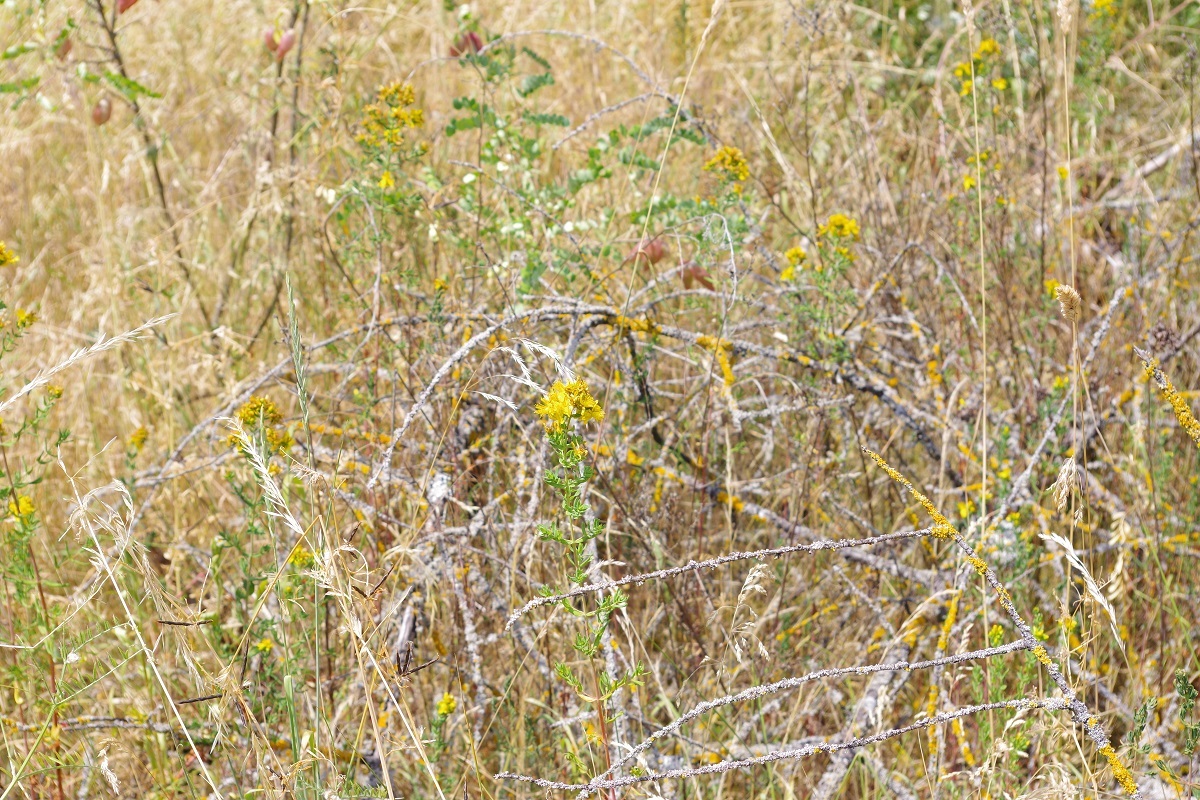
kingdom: Plantae
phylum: Tracheophyta
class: Magnoliopsida
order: Malpighiales
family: Hypericaceae
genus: Hypericum
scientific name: Hypericum desetangsii
